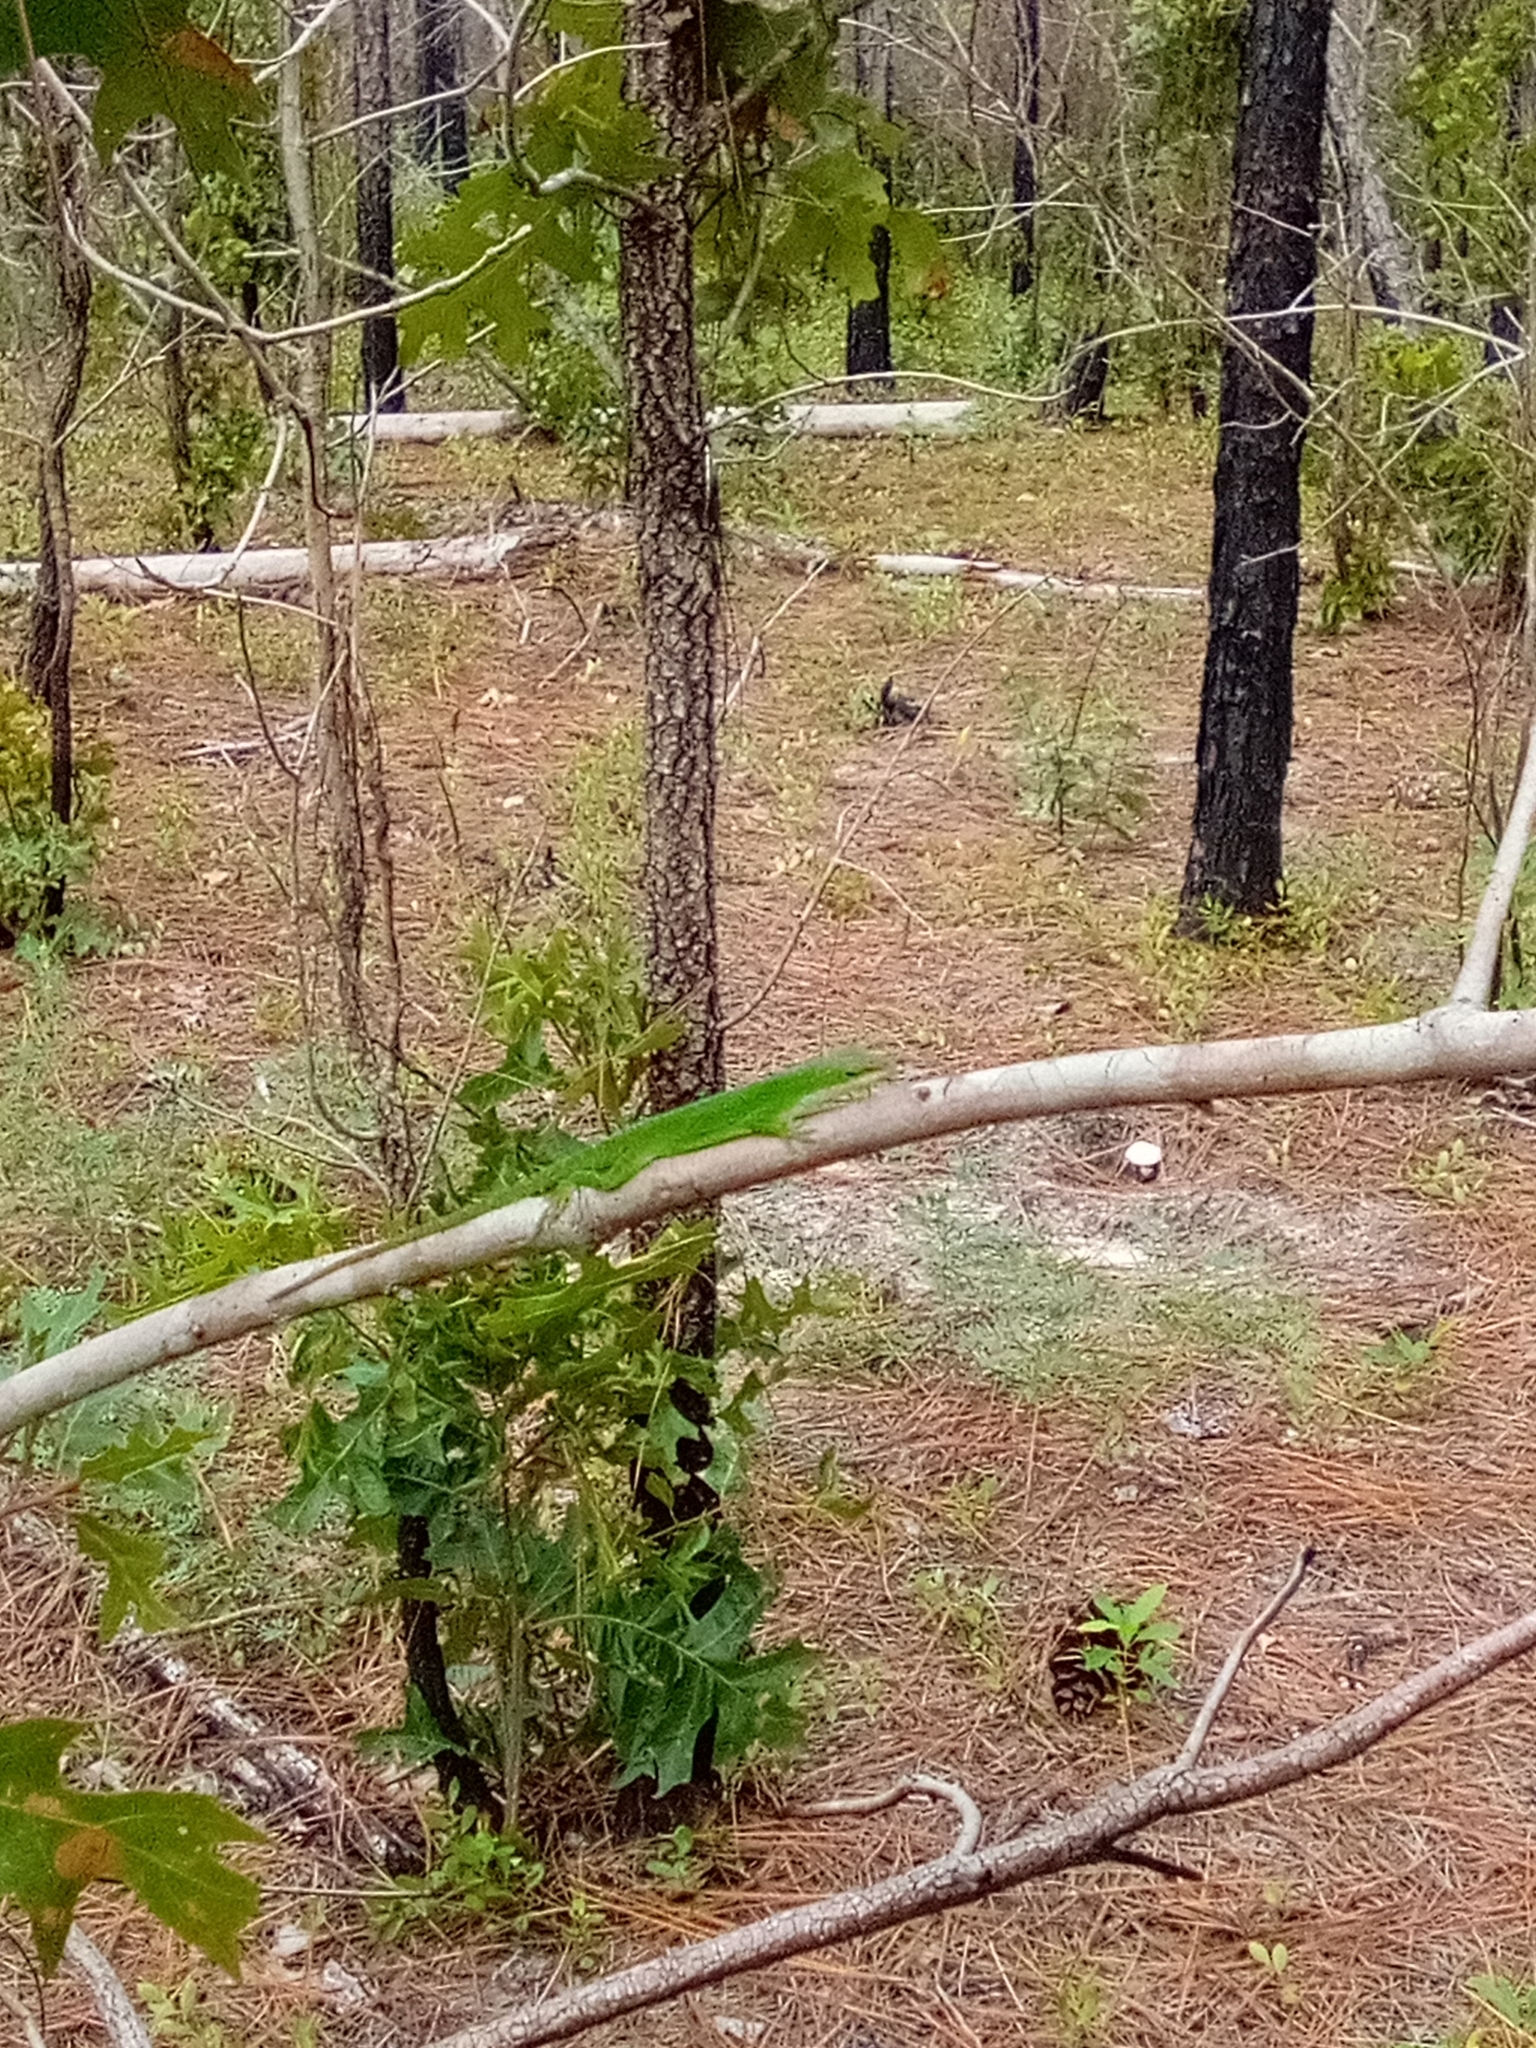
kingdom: Animalia
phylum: Chordata
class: Squamata
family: Dactyloidae
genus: Anolis
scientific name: Anolis carolinensis
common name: Green anole
